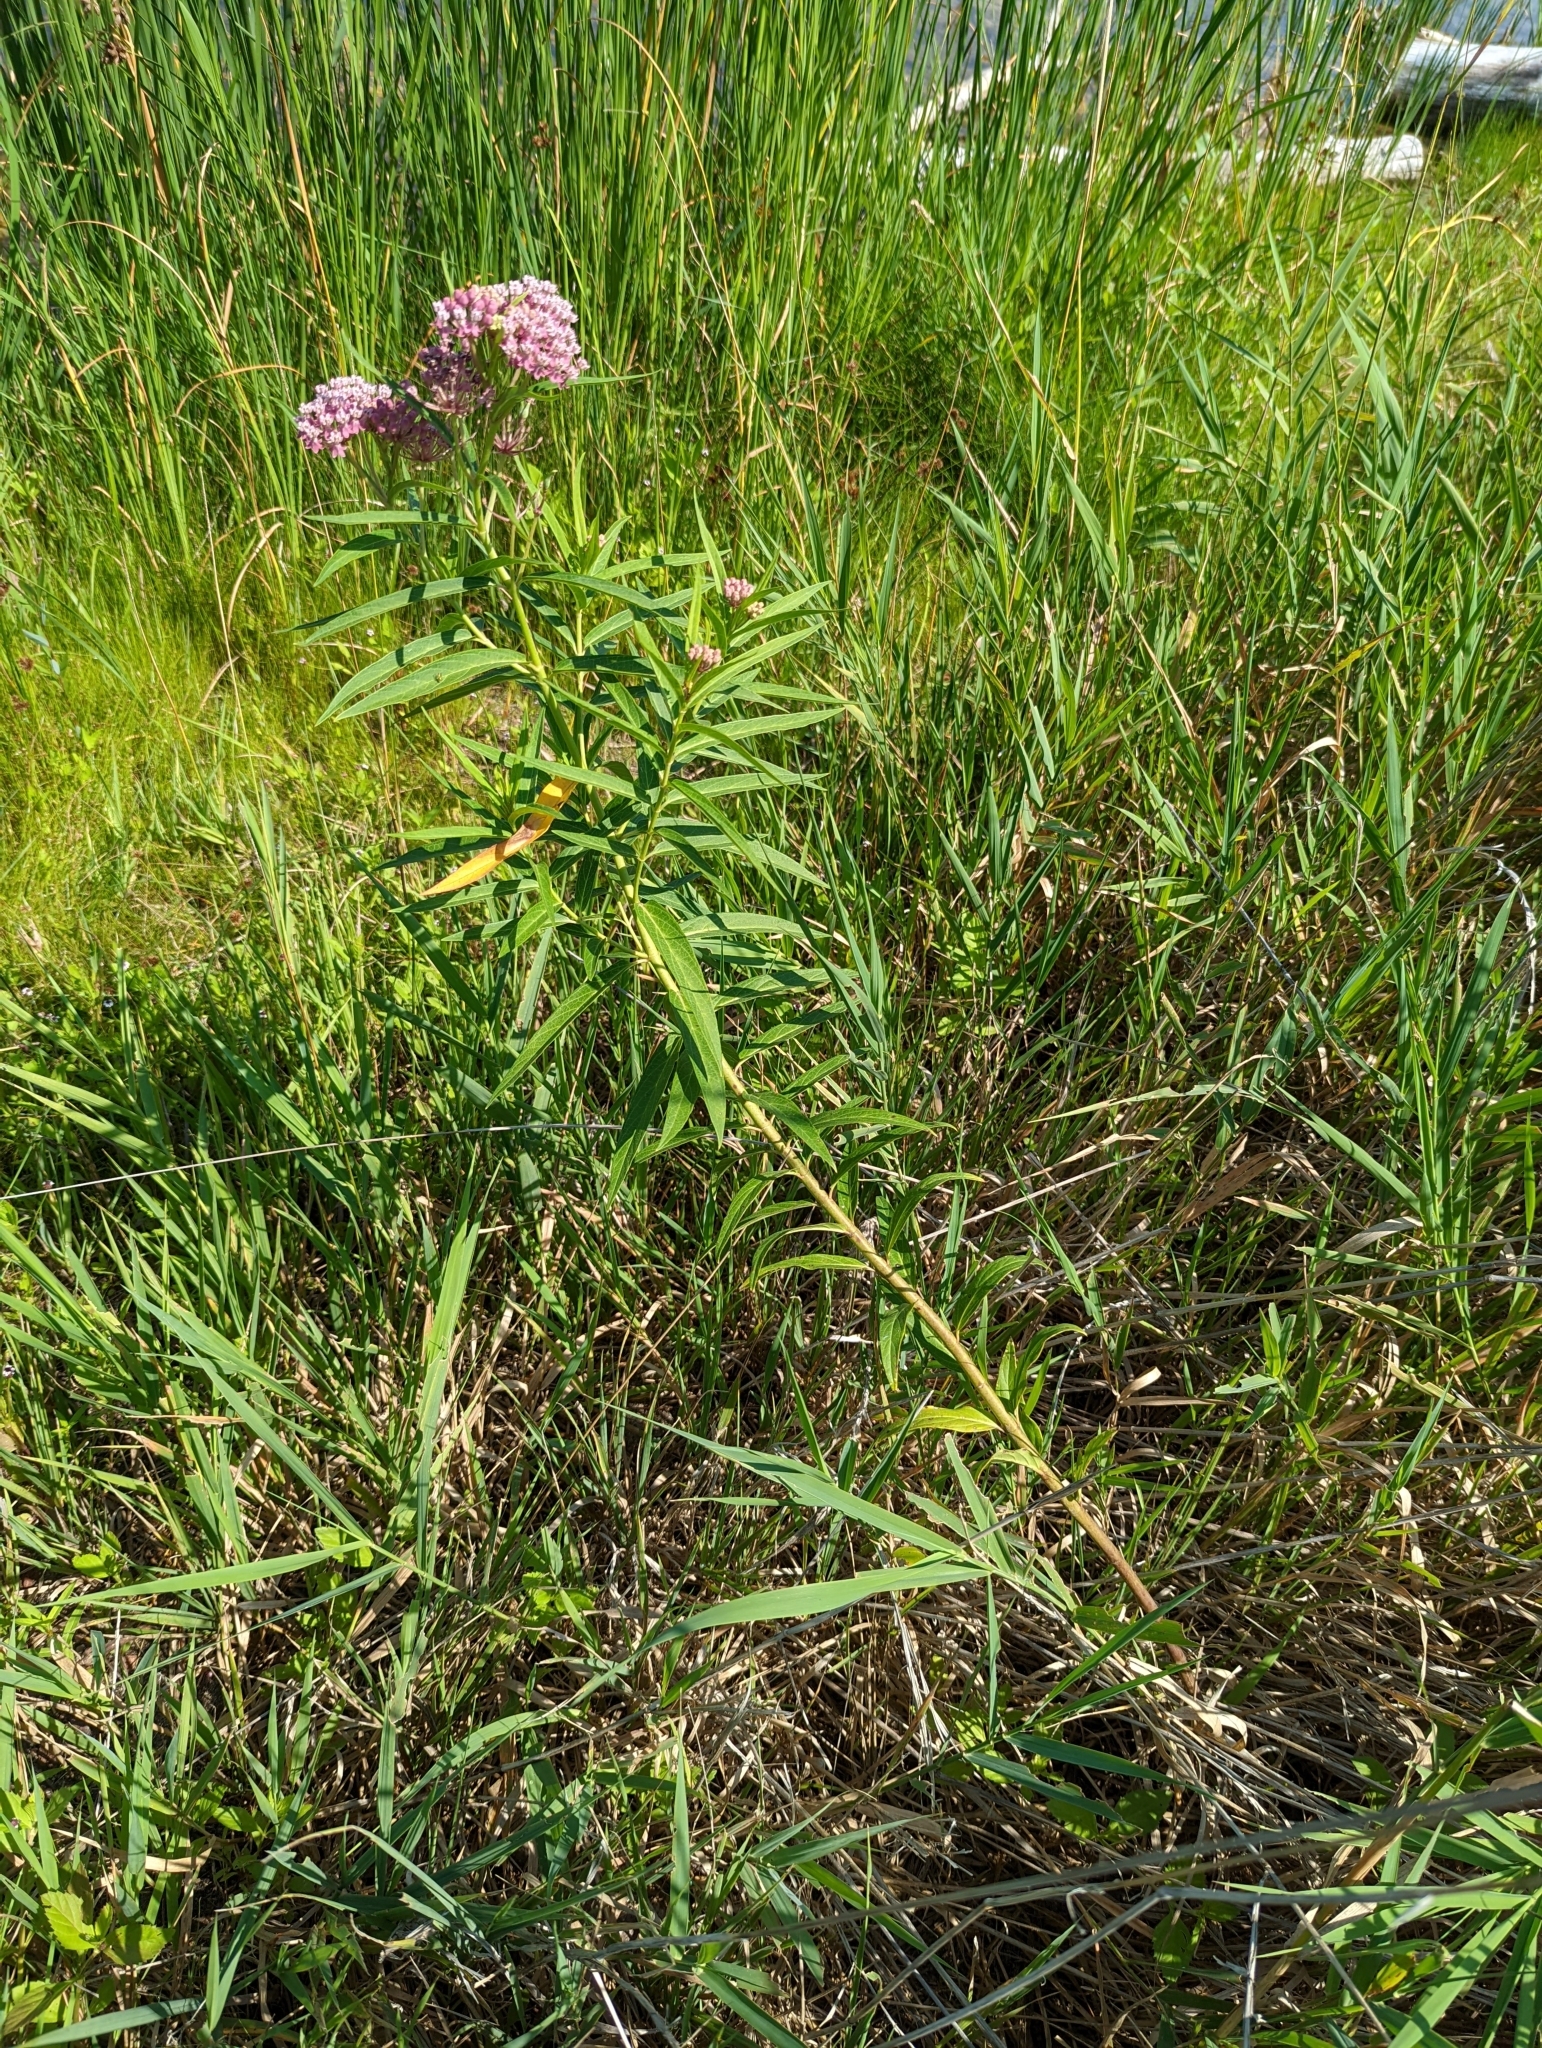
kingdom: Plantae
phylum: Tracheophyta
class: Magnoliopsida
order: Gentianales
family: Apocynaceae
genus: Asclepias
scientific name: Asclepias incarnata
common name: Swamp milkweed
